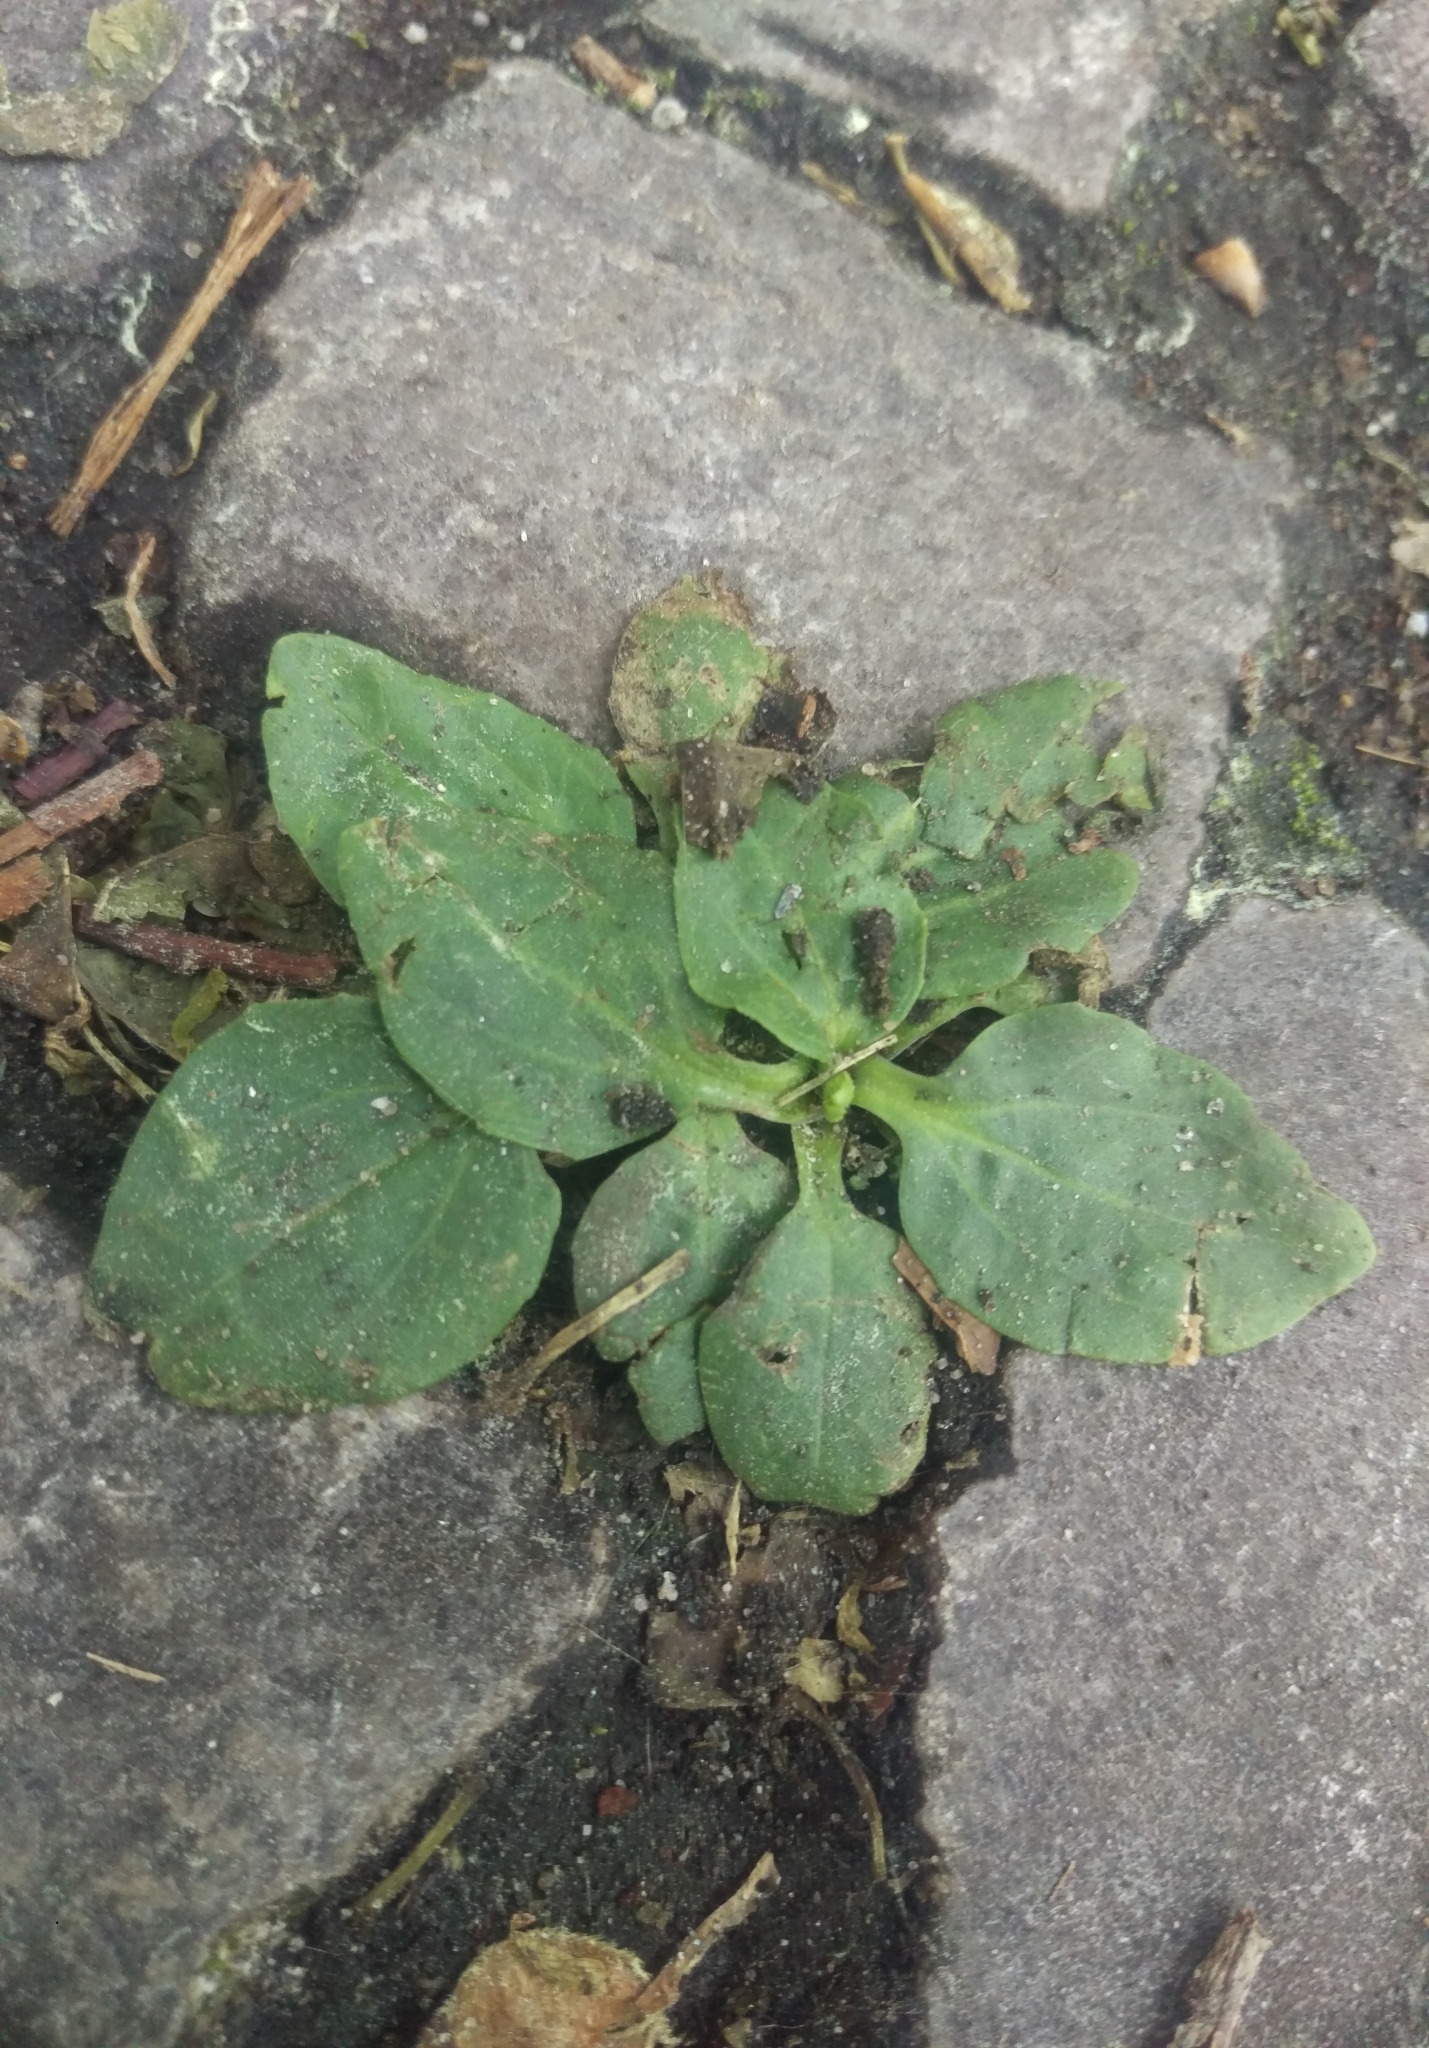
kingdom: Plantae
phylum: Tracheophyta
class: Magnoliopsida
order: Lamiales
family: Plantaginaceae
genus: Plantago
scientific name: Plantago major
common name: Common plantain
